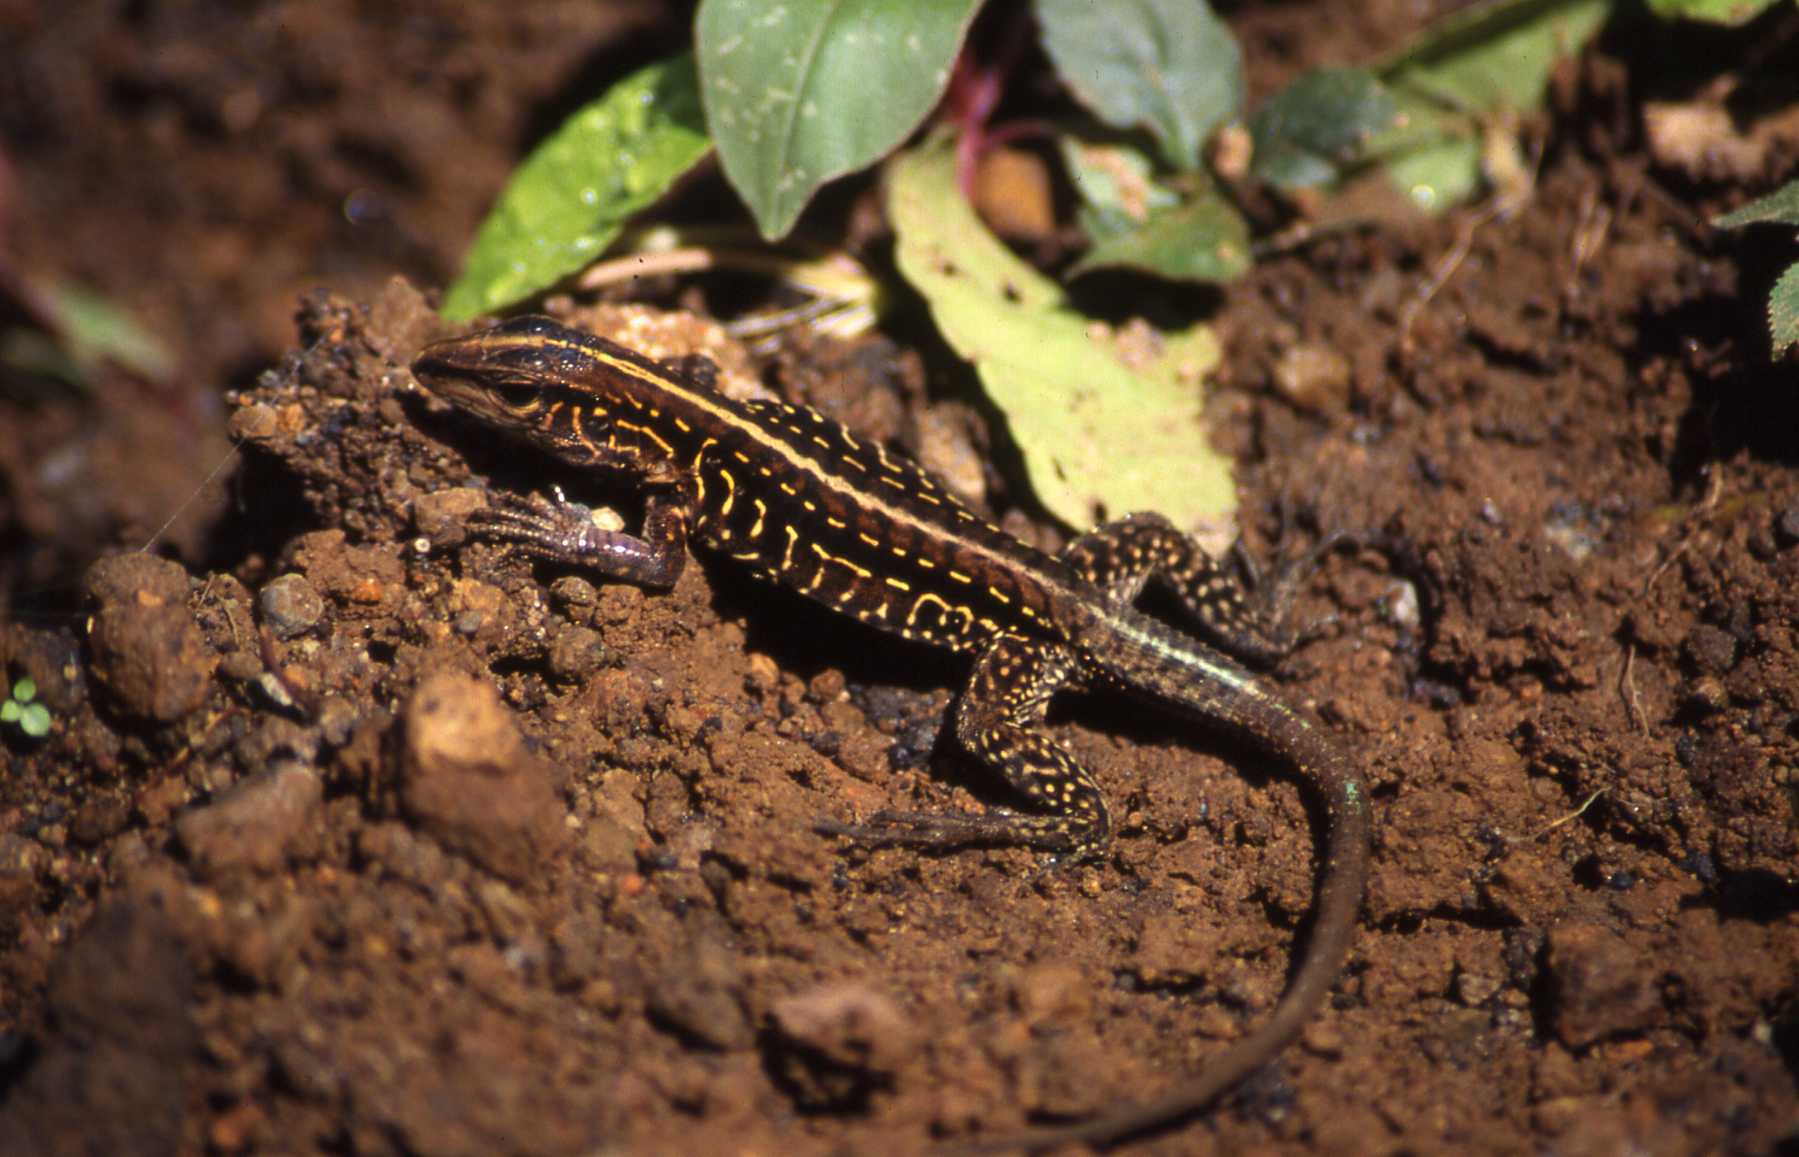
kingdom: Animalia
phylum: Chordata
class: Squamata
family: Teiidae
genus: Holcosus
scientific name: Holcosus festivus
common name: Middle american ameiva
